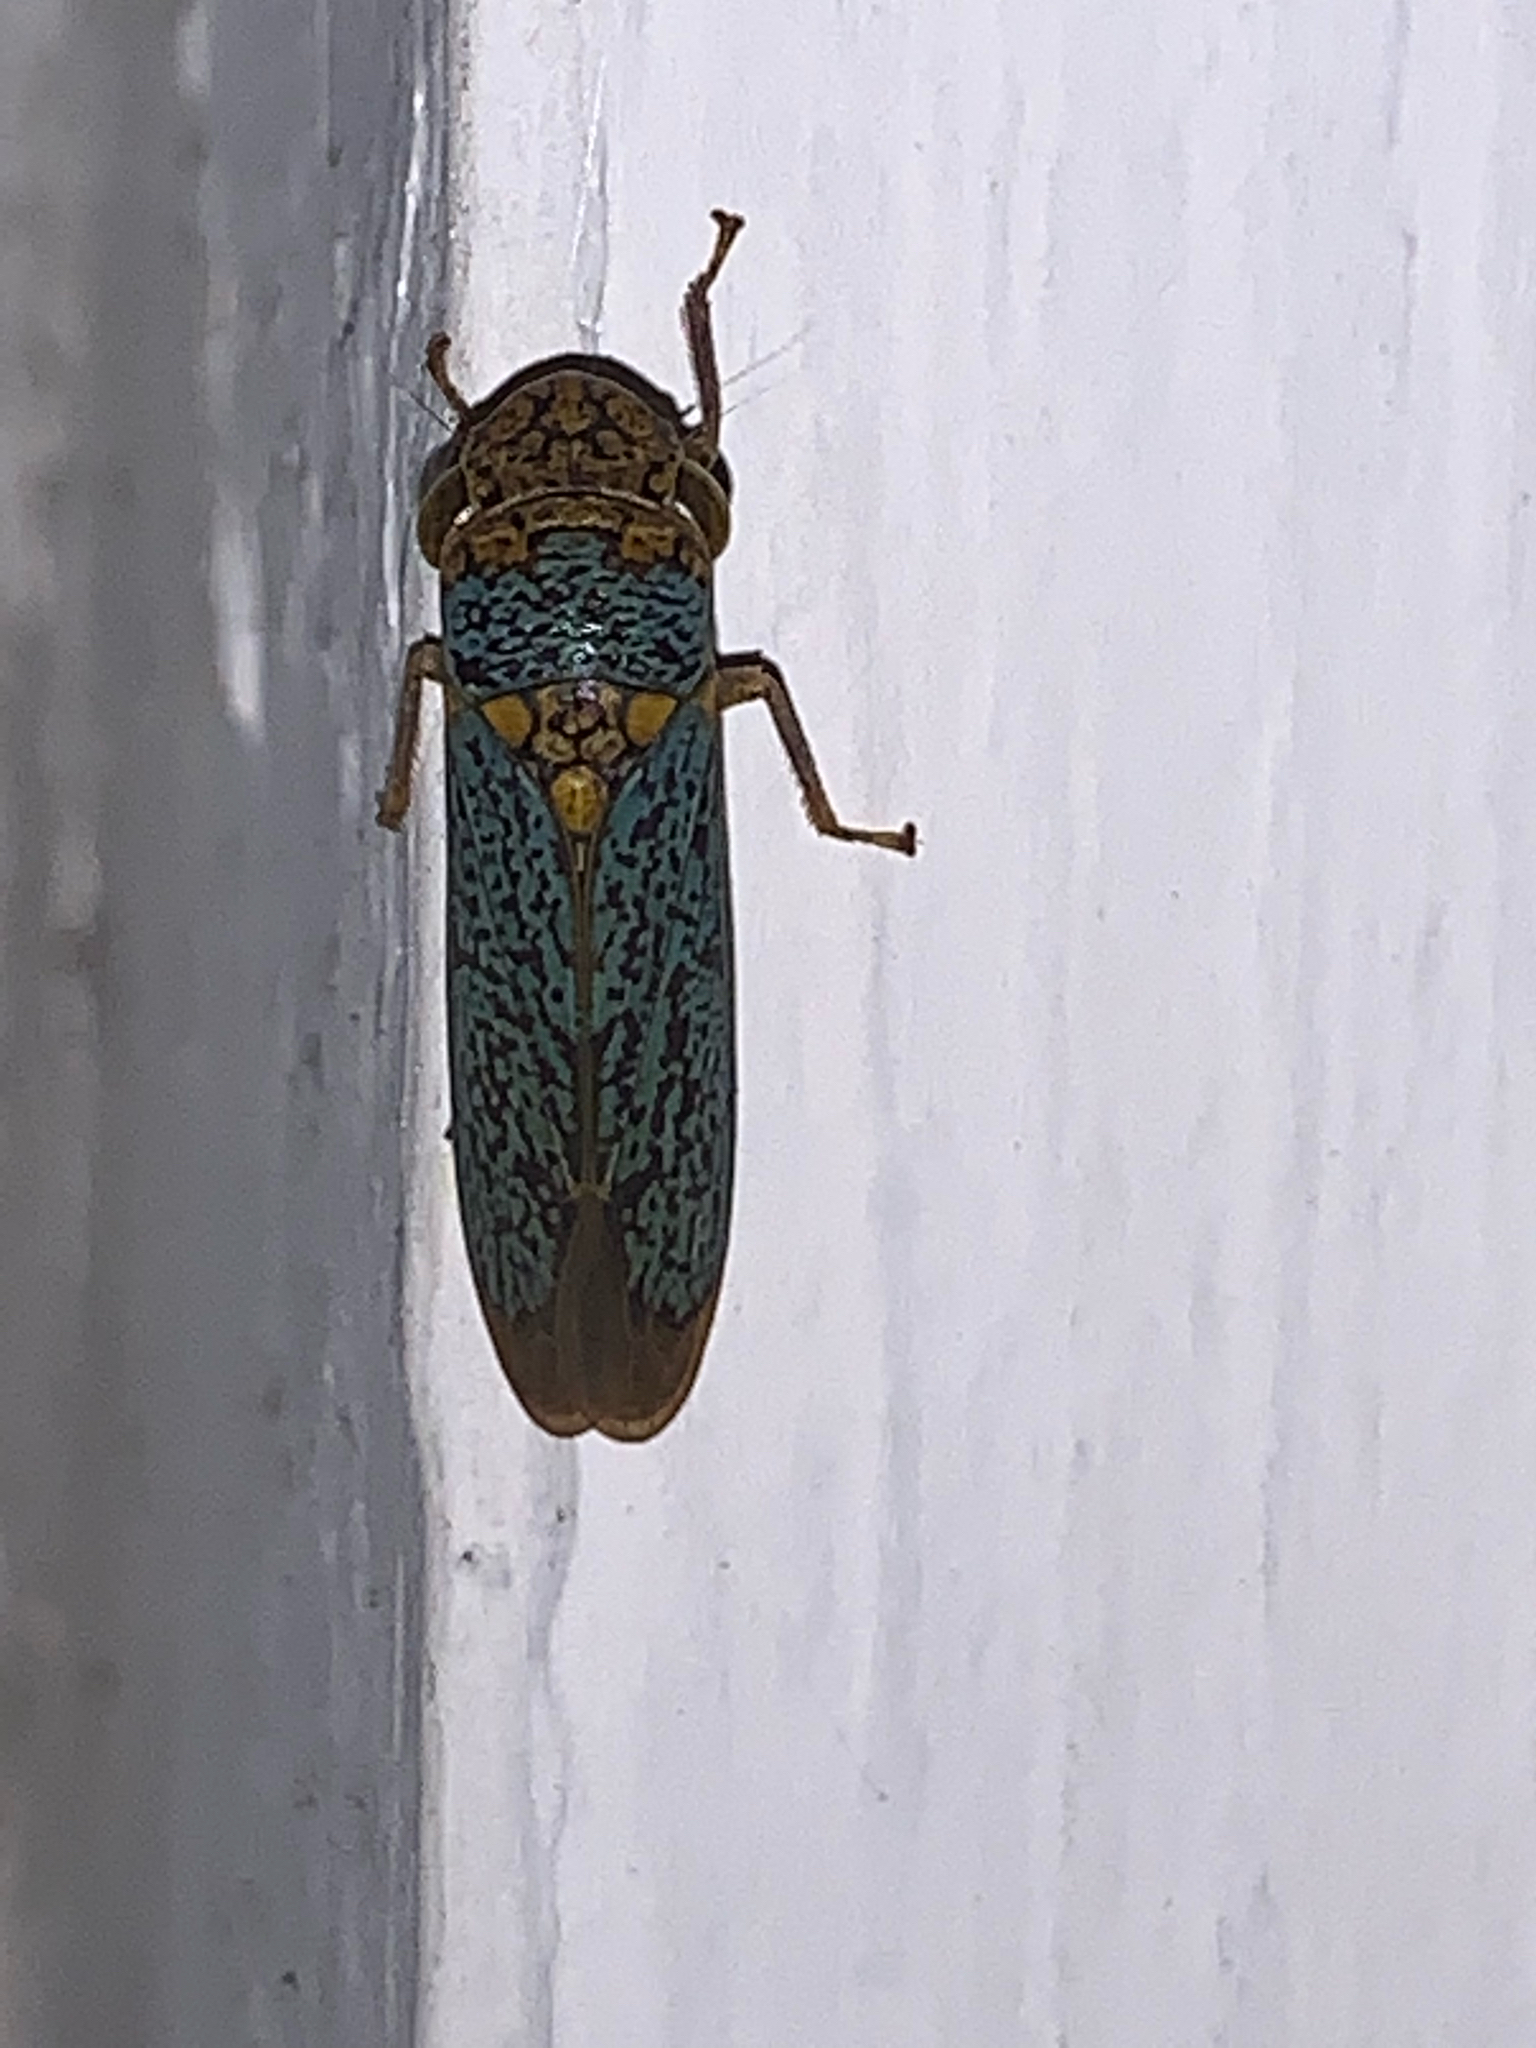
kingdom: Animalia
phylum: Arthropoda
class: Insecta
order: Hemiptera
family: Cicadellidae
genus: Oncometopia
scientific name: Oncometopia orbona
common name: Broad-headed sharpshooter
